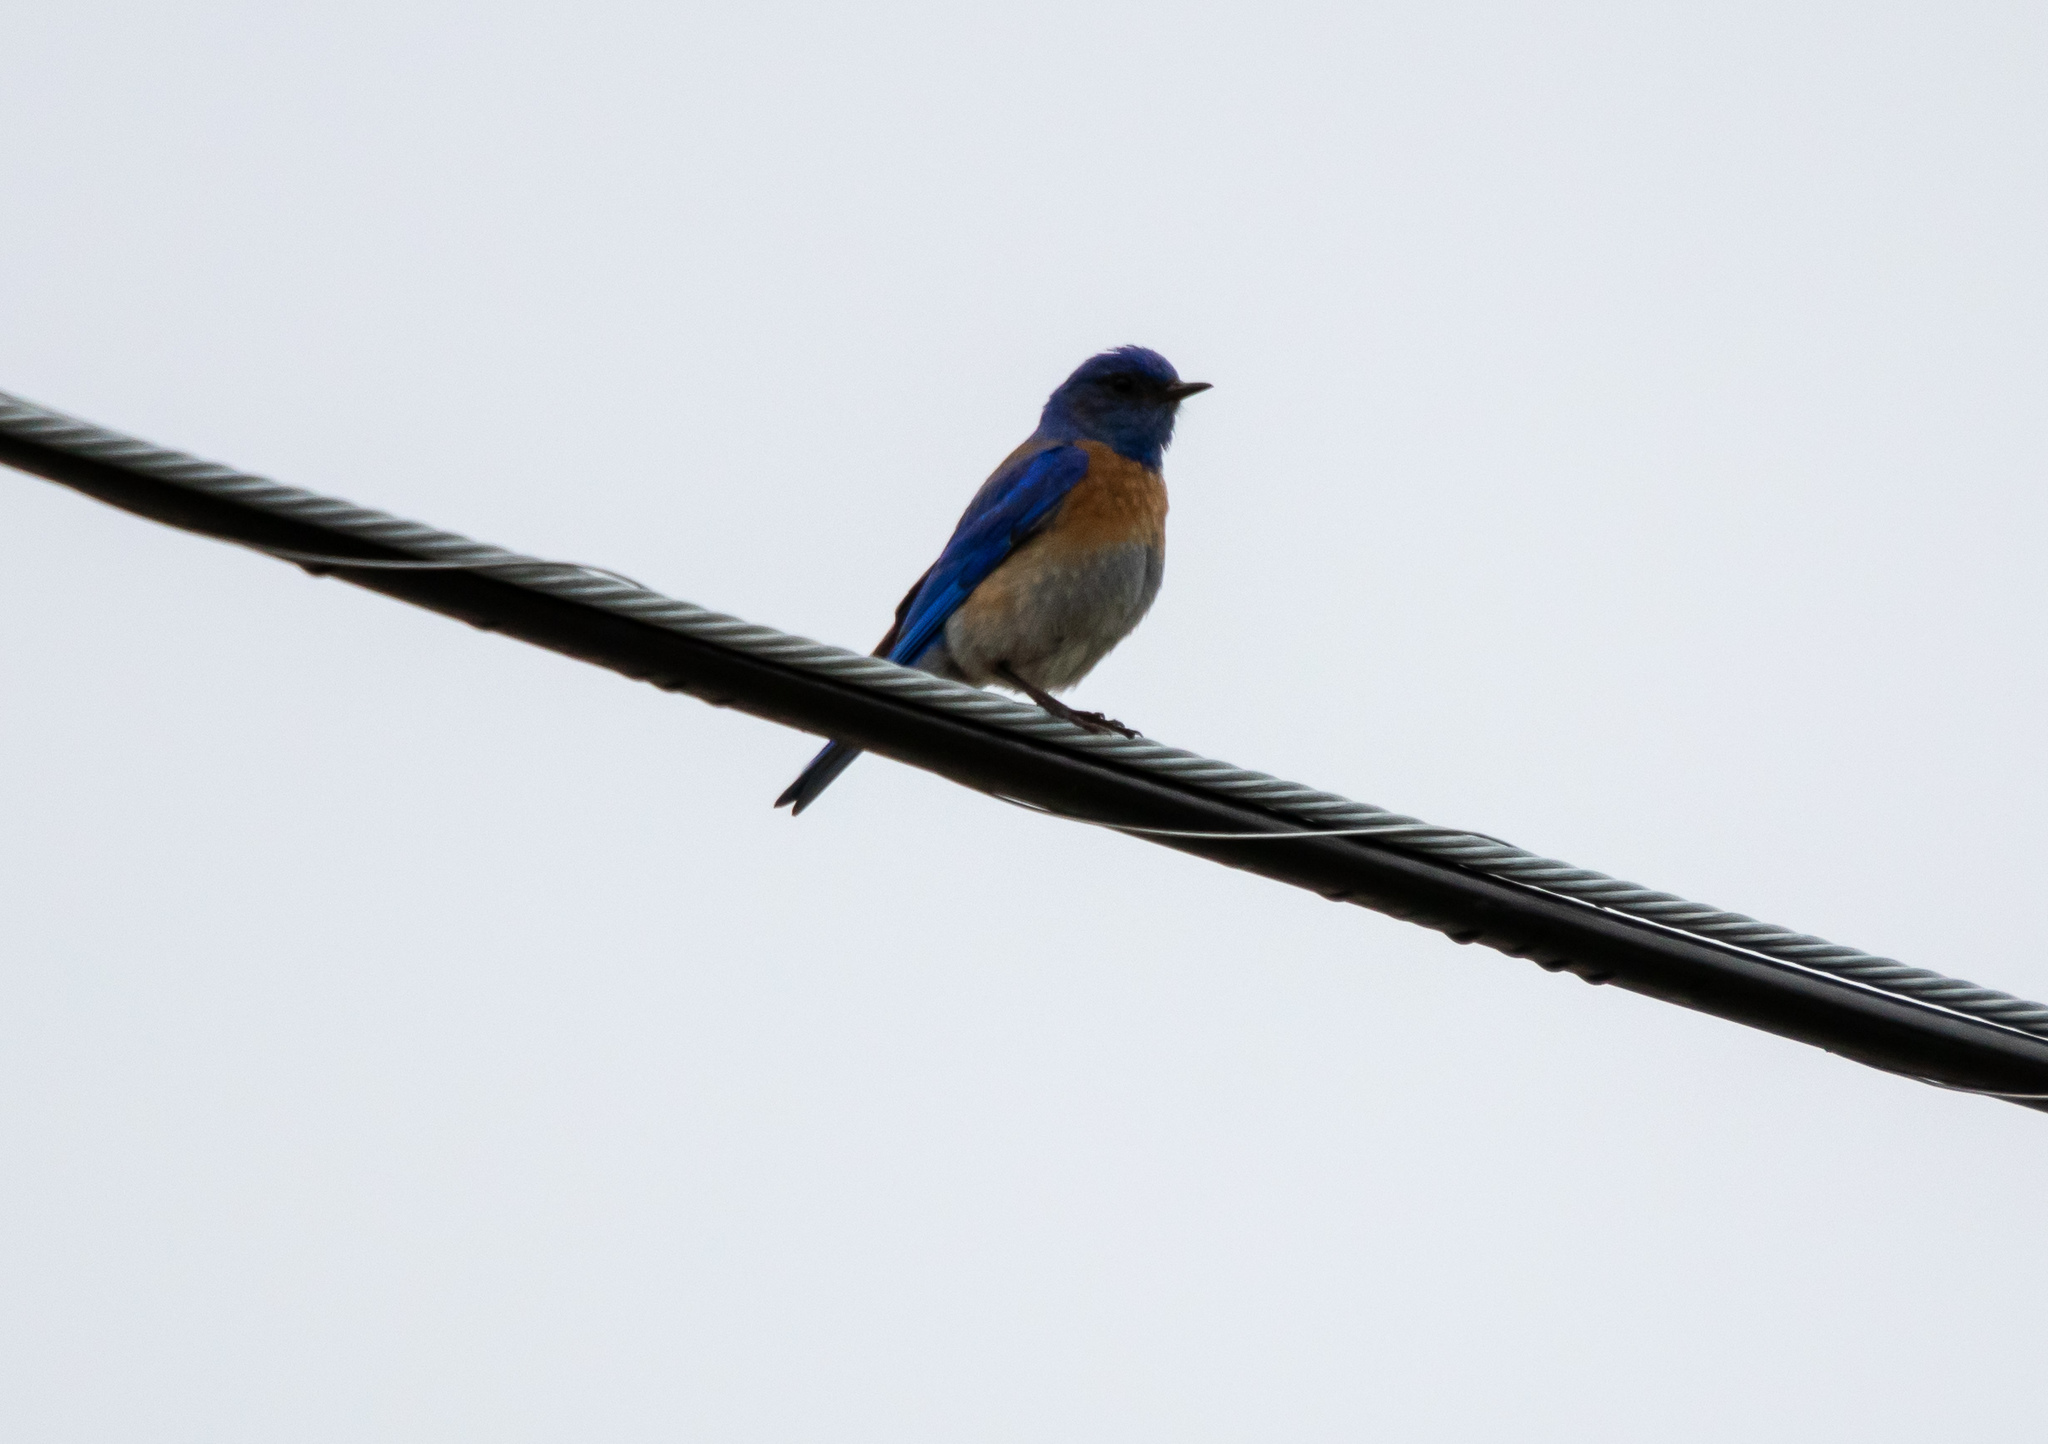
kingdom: Animalia
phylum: Chordata
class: Aves
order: Passeriformes
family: Turdidae
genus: Sialia
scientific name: Sialia mexicana
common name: Western bluebird
